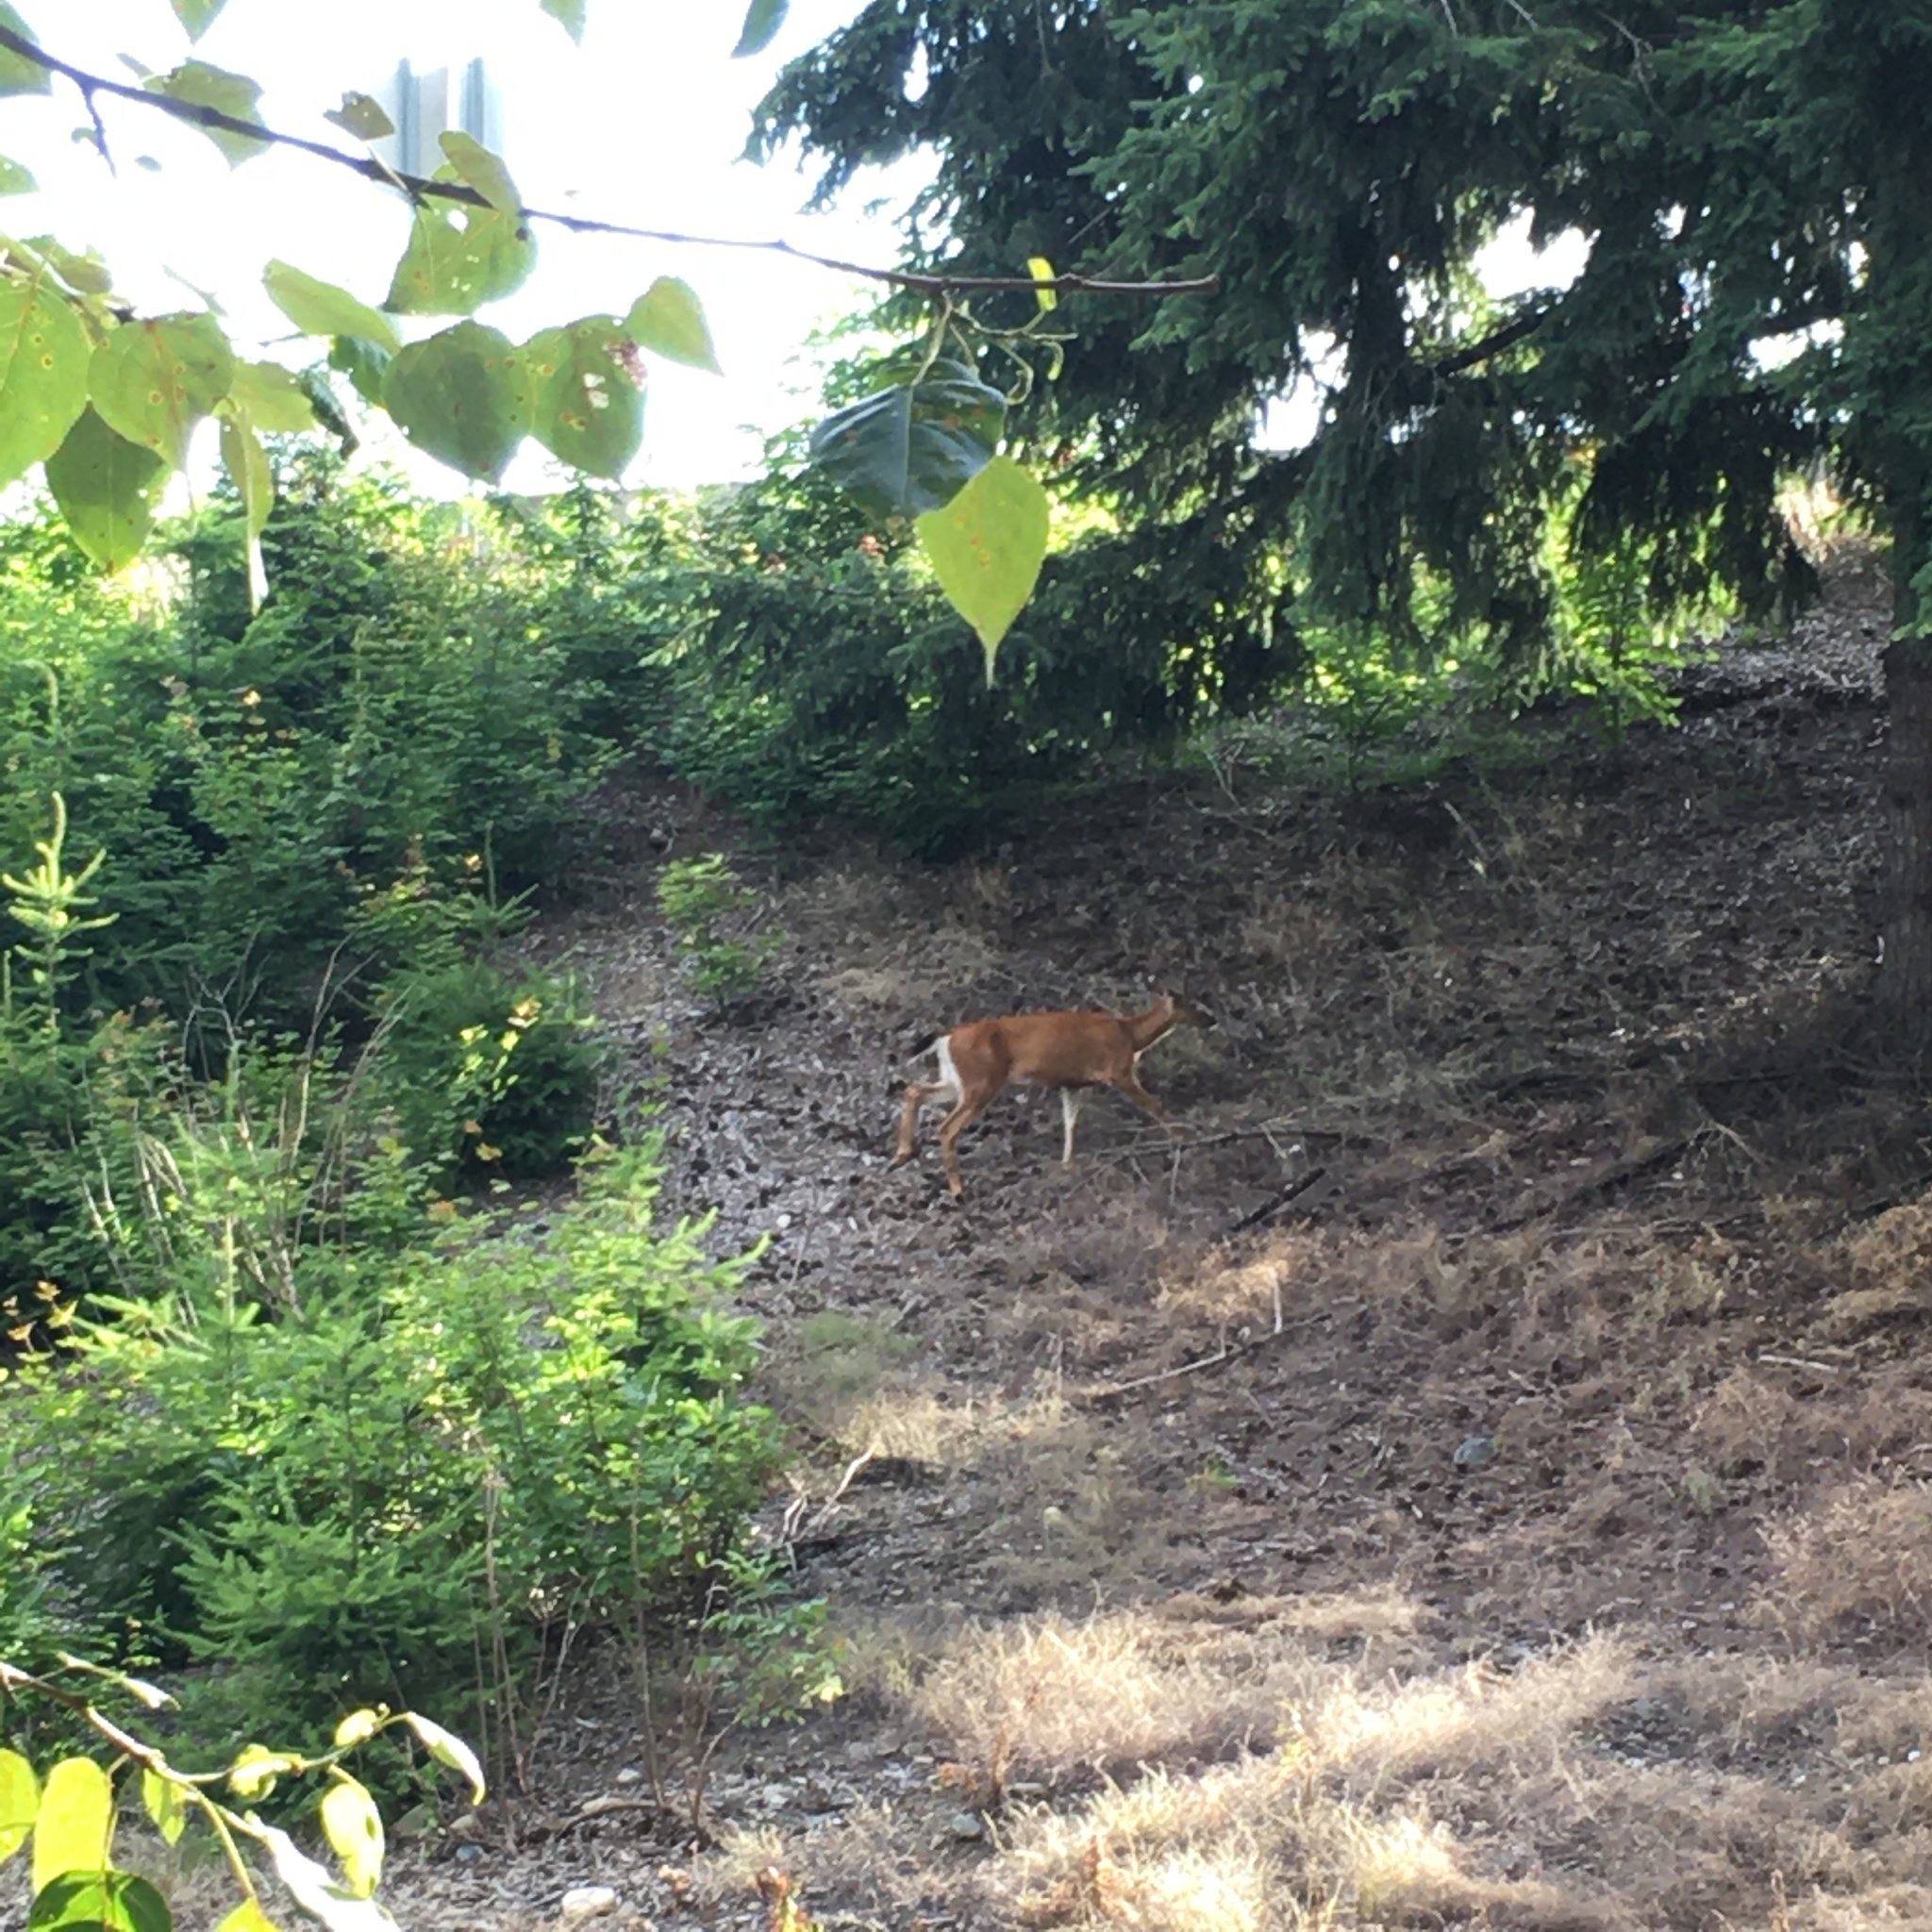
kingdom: Animalia
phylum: Chordata
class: Mammalia
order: Artiodactyla
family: Cervidae
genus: Odocoileus
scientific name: Odocoileus hemionus
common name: Mule deer
